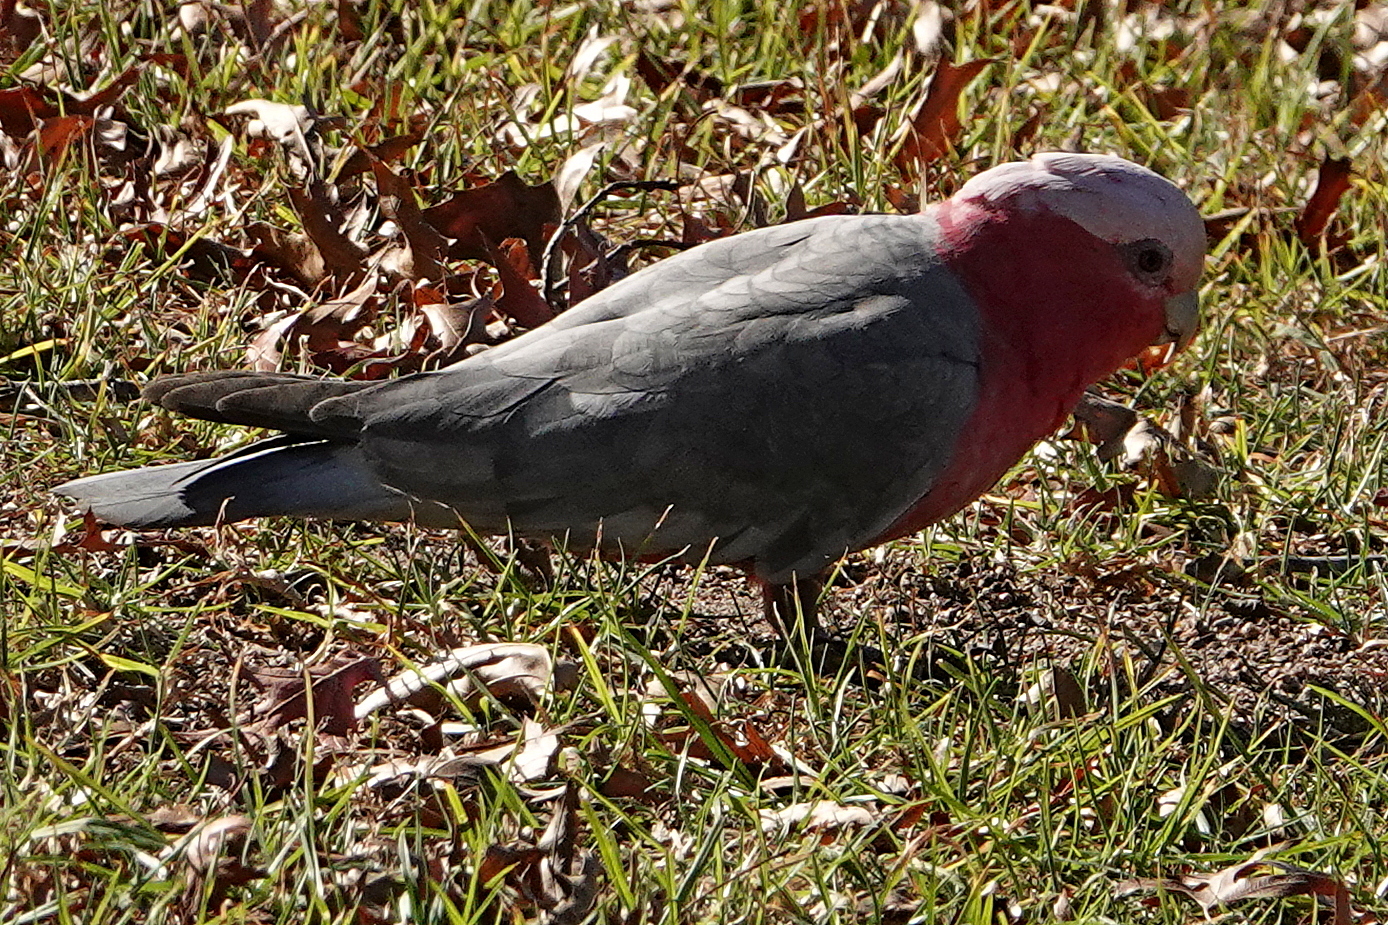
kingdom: Animalia
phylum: Chordata
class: Aves
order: Psittaciformes
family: Psittacidae
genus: Eolophus
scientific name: Eolophus roseicapilla
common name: Galah
